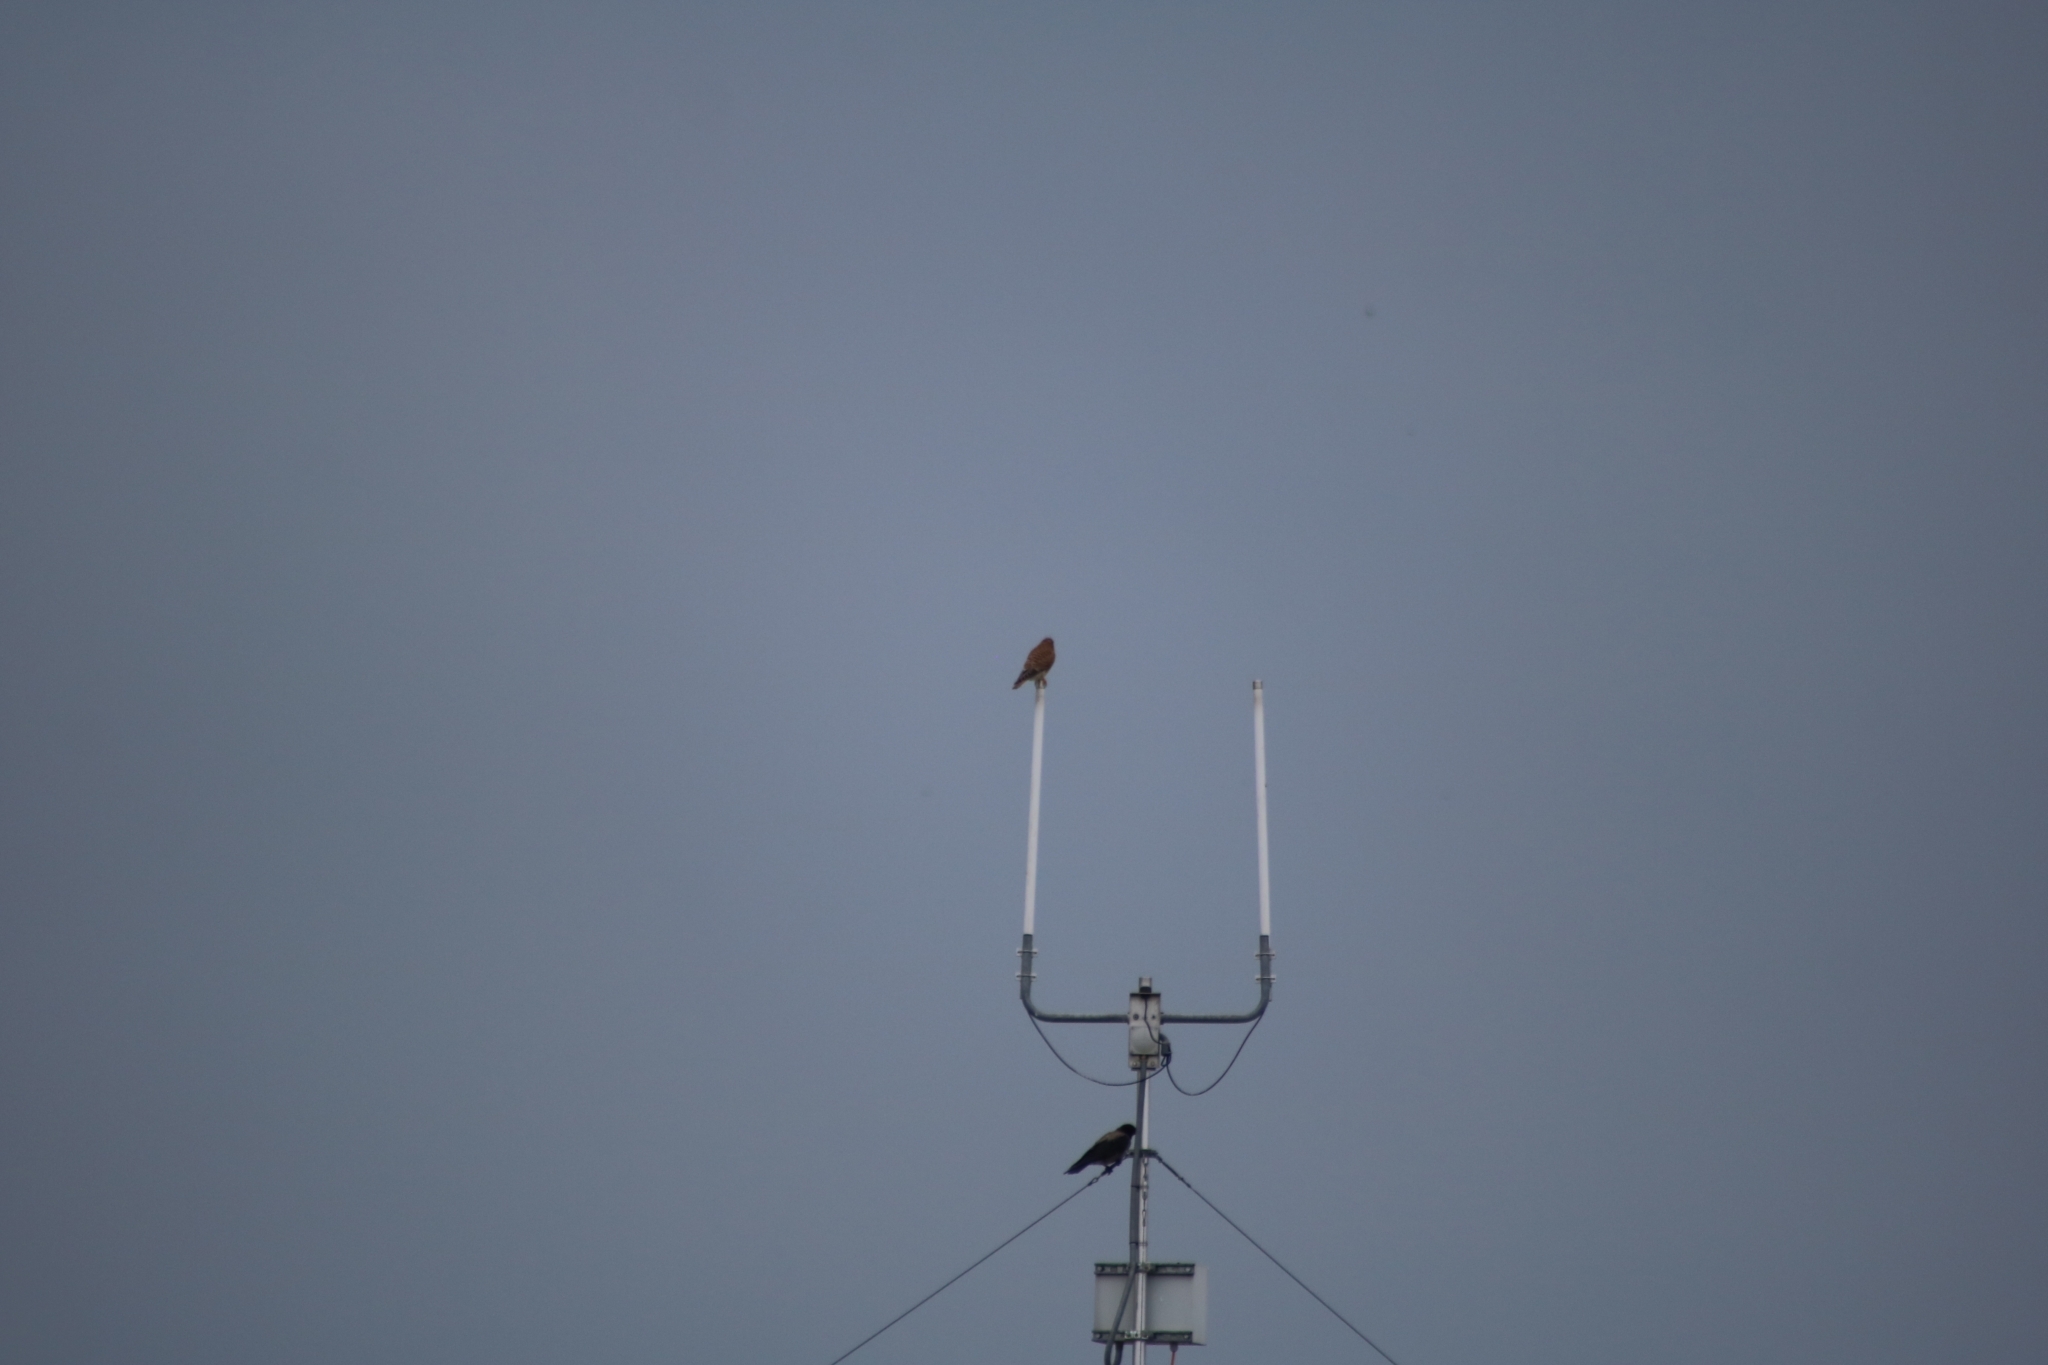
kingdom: Animalia
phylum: Chordata
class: Aves
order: Falconiformes
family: Falconidae
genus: Falco
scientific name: Falco tinnunculus
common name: Common kestrel
